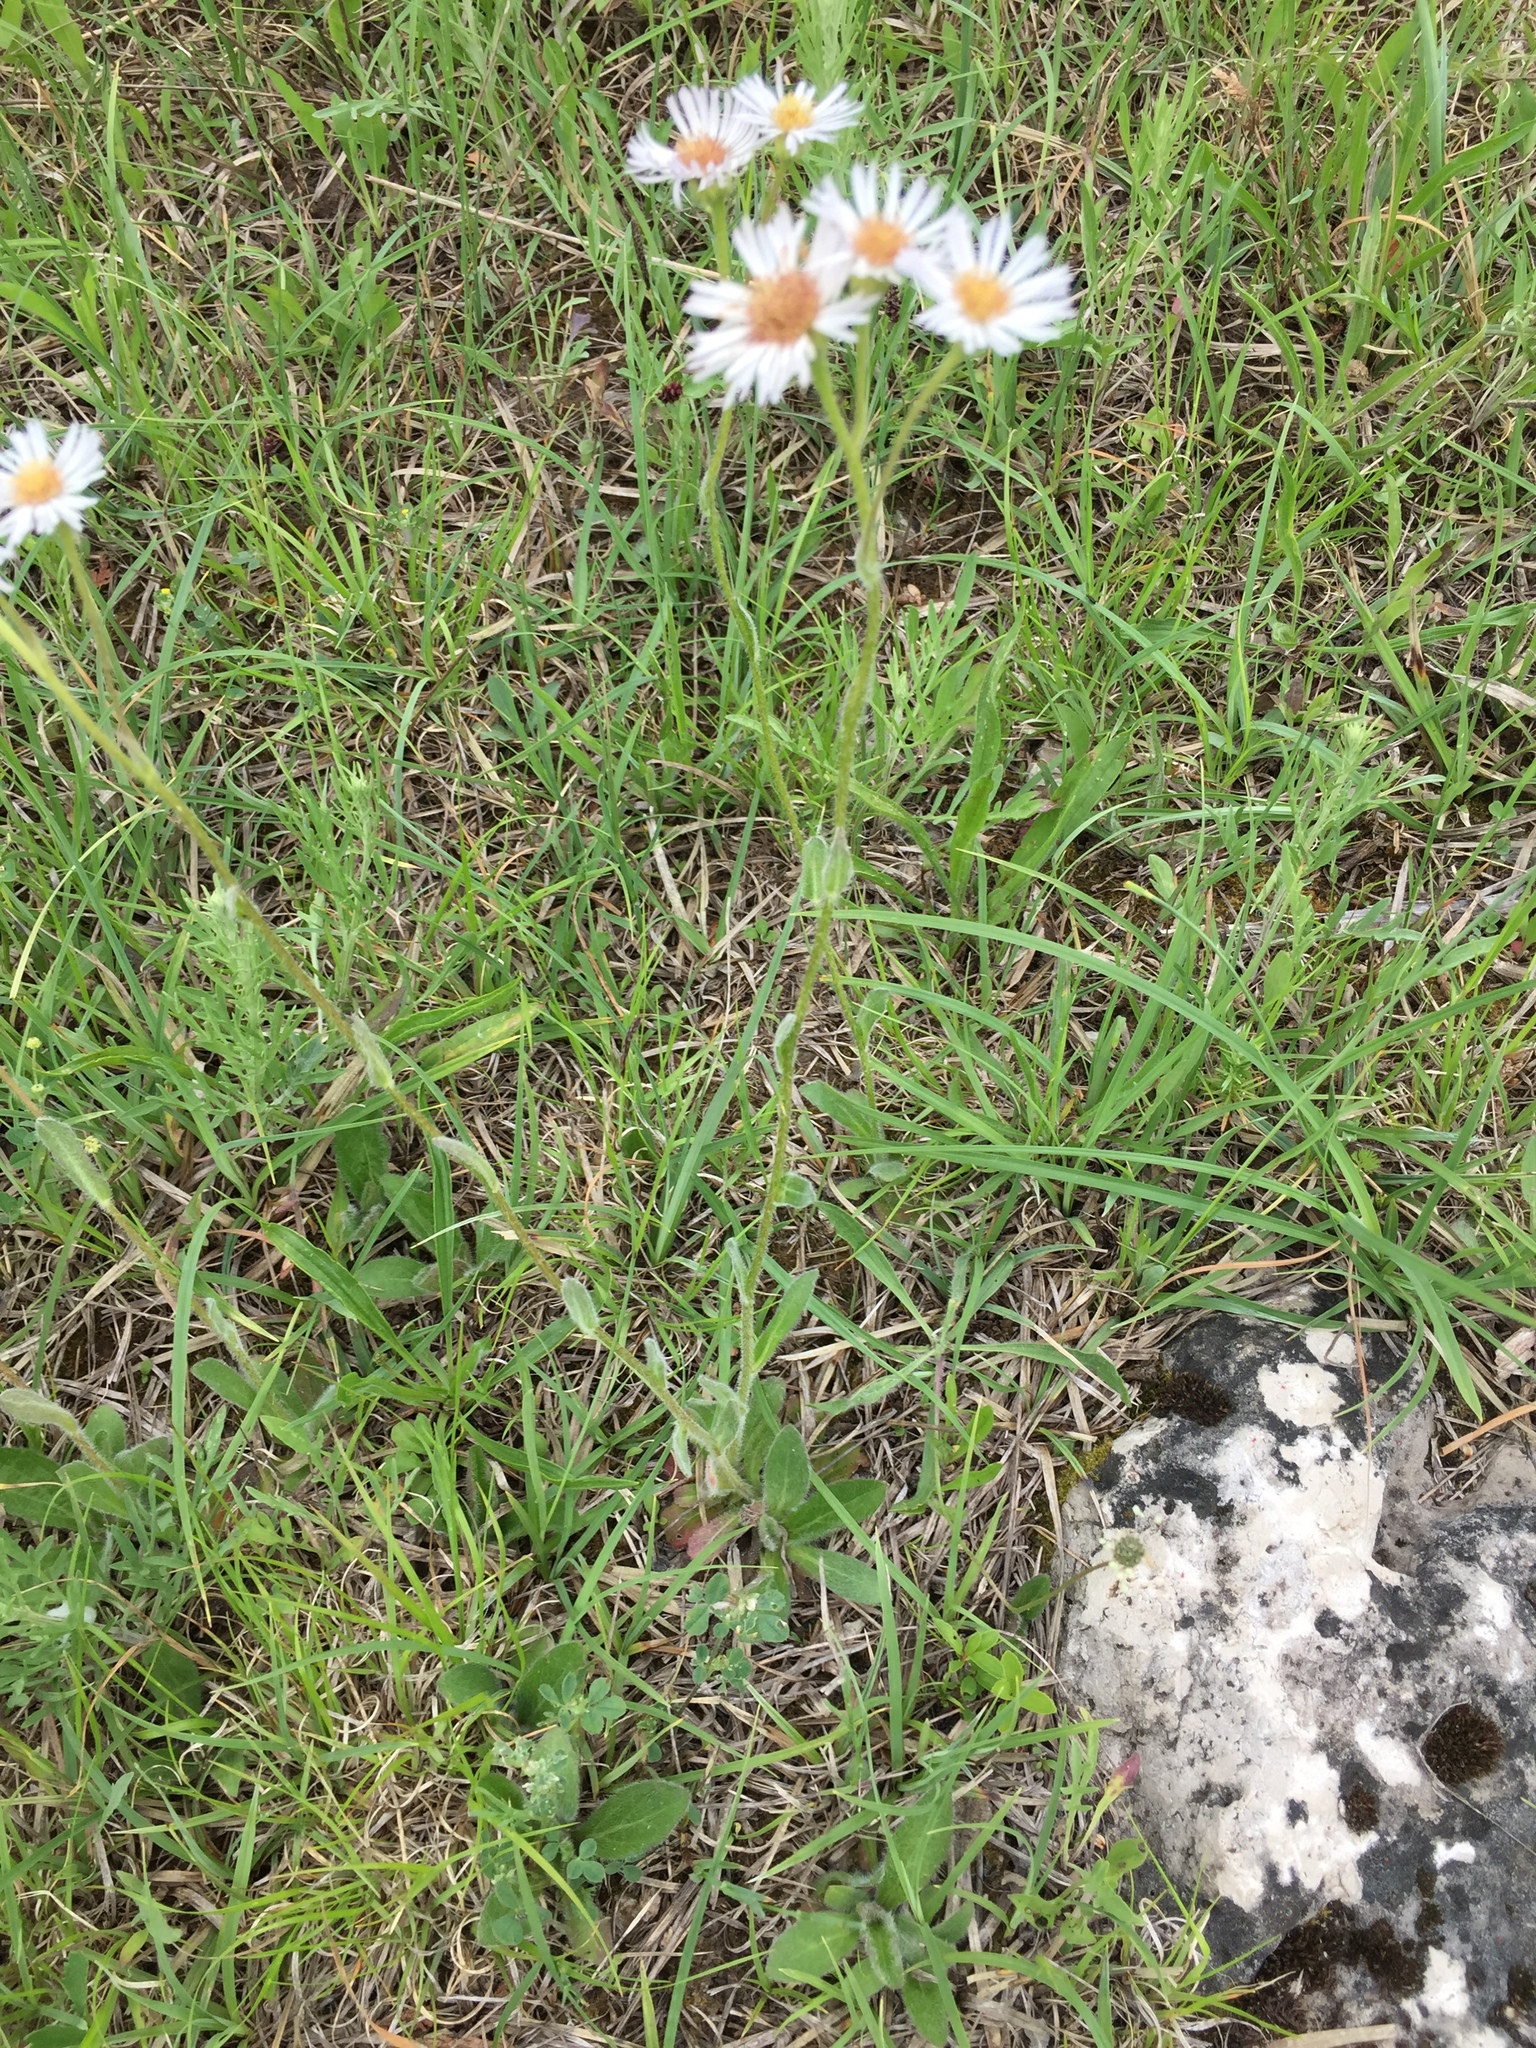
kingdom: Plantae
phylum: Tracheophyta
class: Magnoliopsida
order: Asterales
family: Asteraceae
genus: Erigeron
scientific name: Erigeron pulchellus
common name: Hairy fleabane
